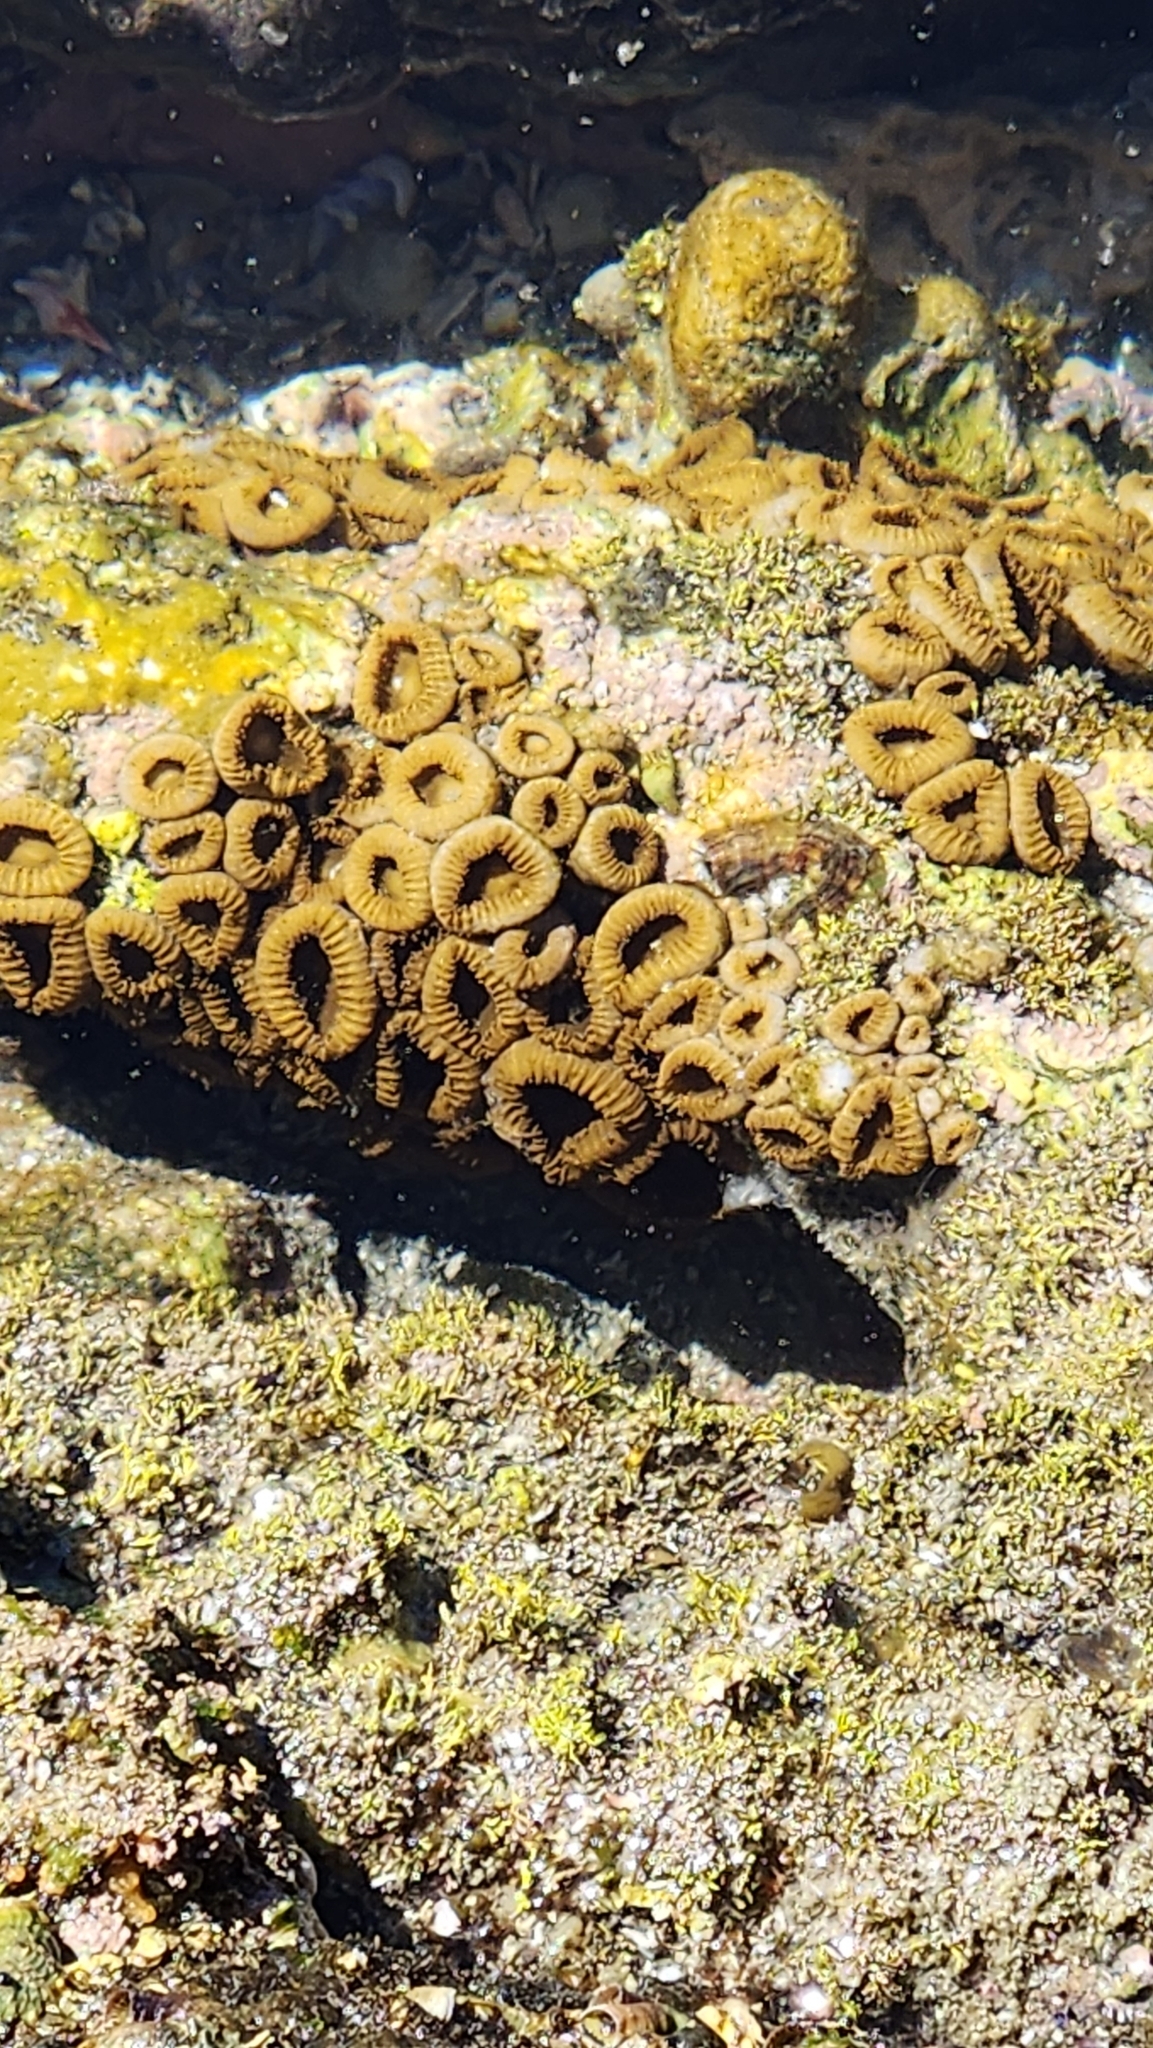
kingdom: Animalia
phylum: Cnidaria
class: Anthozoa
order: Zoantharia
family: Sphenopidae
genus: Palythoa
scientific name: Palythoa mutuki
